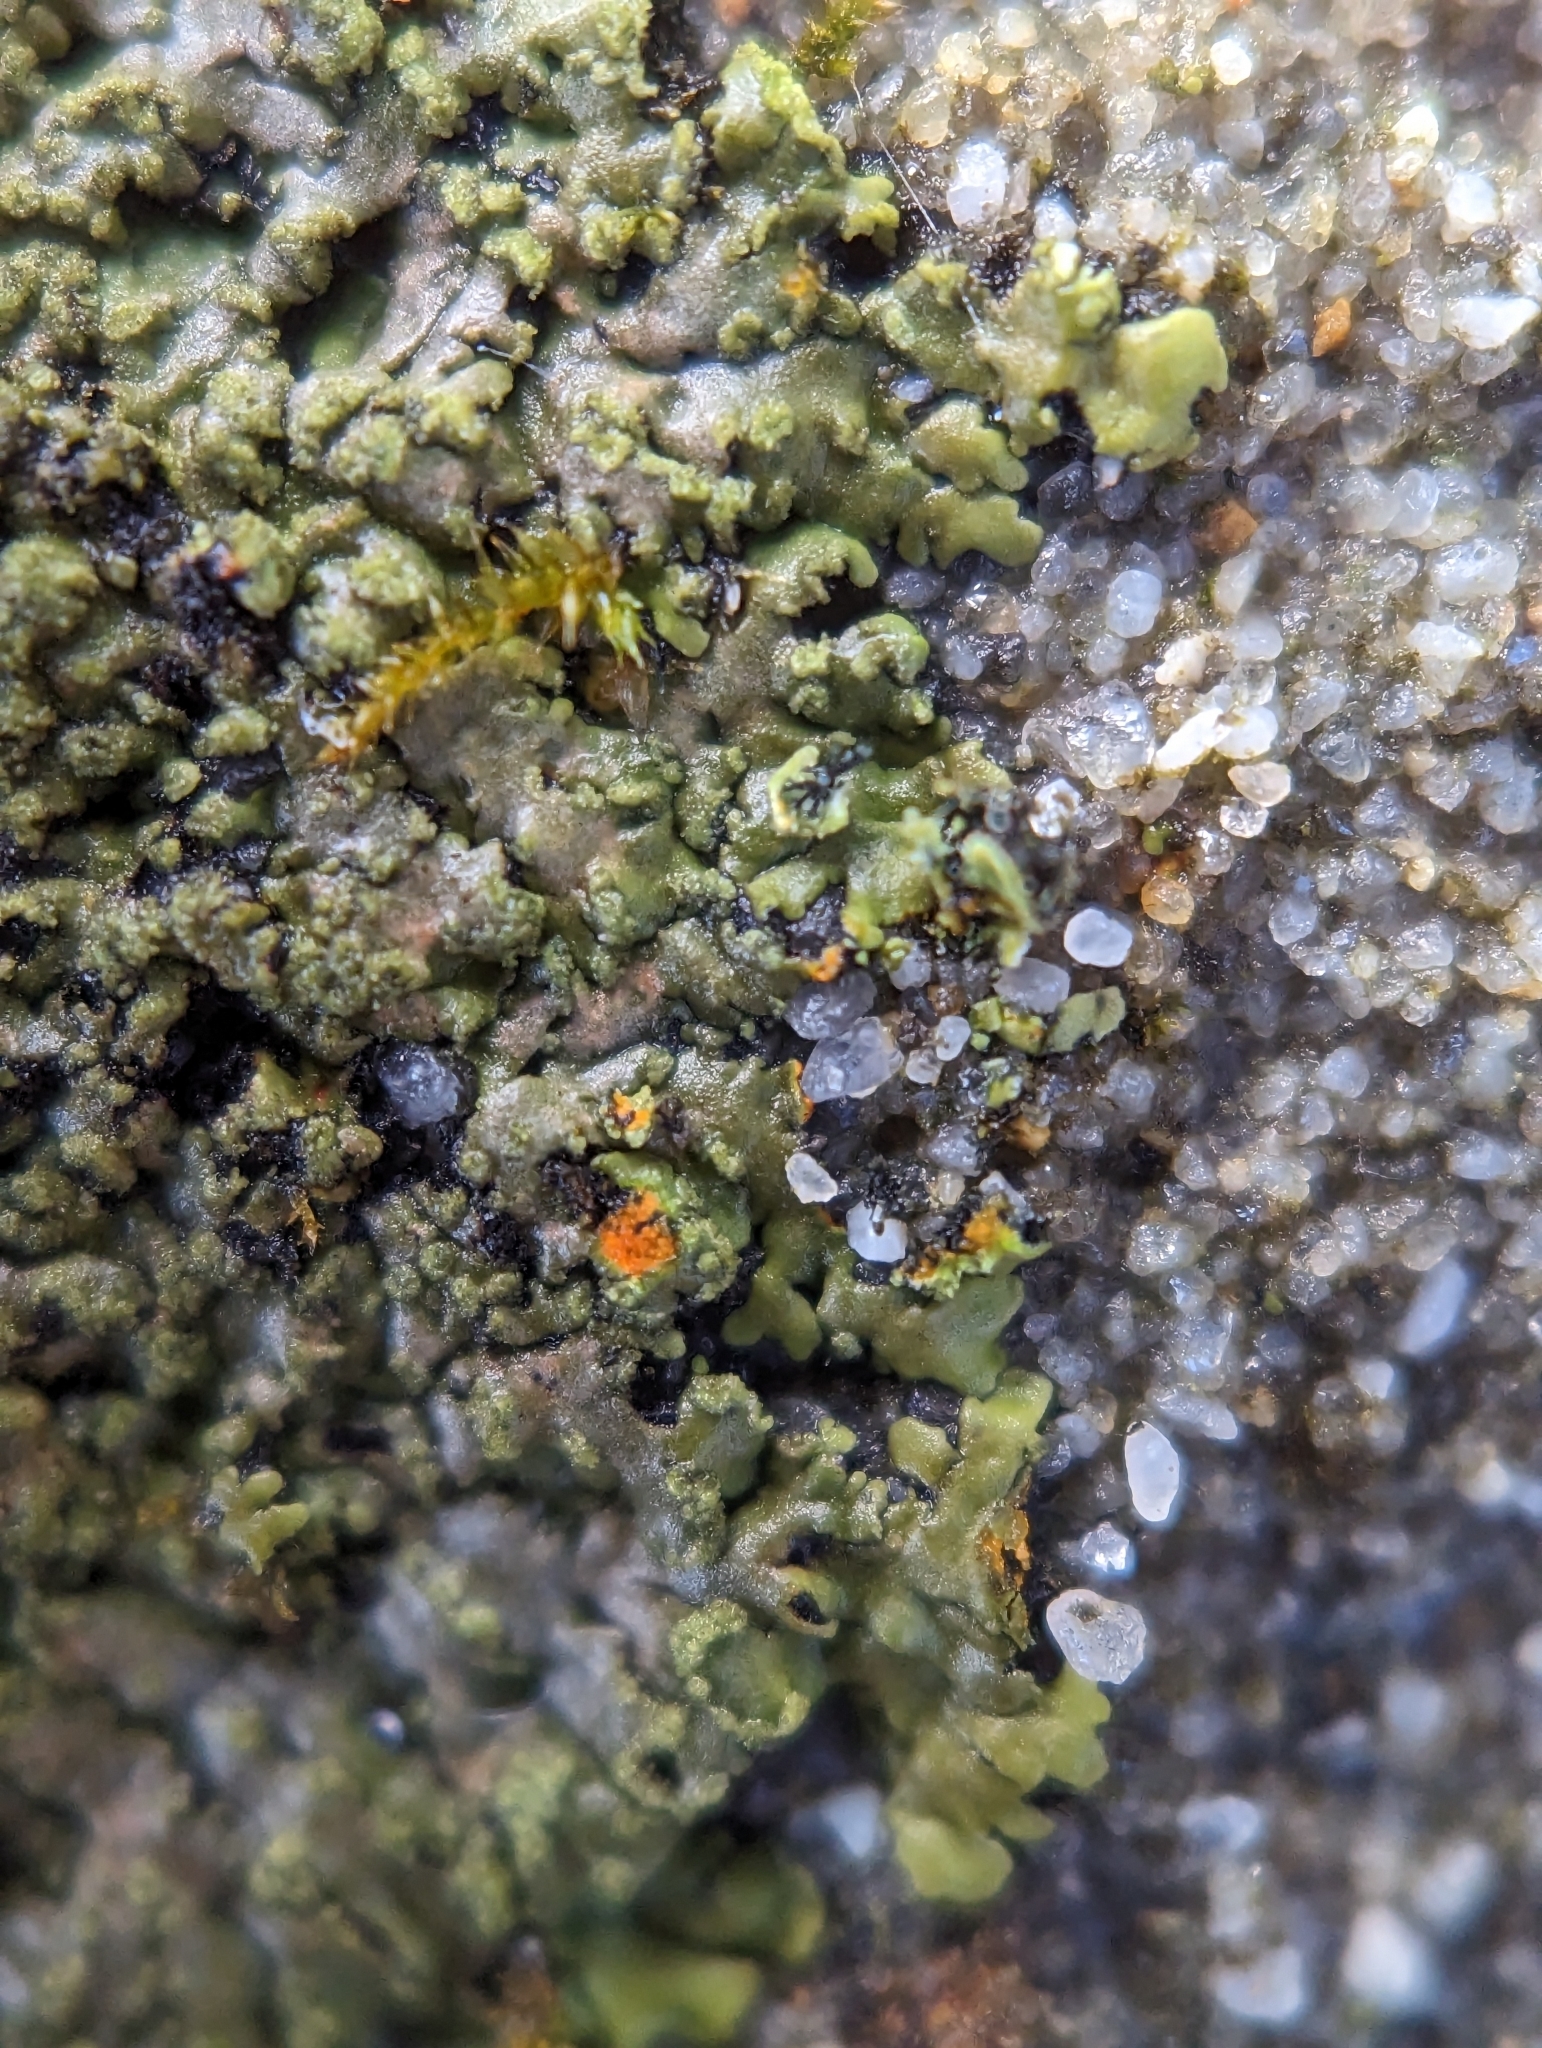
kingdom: Fungi
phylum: Ascomycota
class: Lecanoromycetes
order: Caliciales
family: Physciaceae
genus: Phaeophyscia
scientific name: Phaeophyscia rubropulchra
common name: Orange-cored shadow lichen
